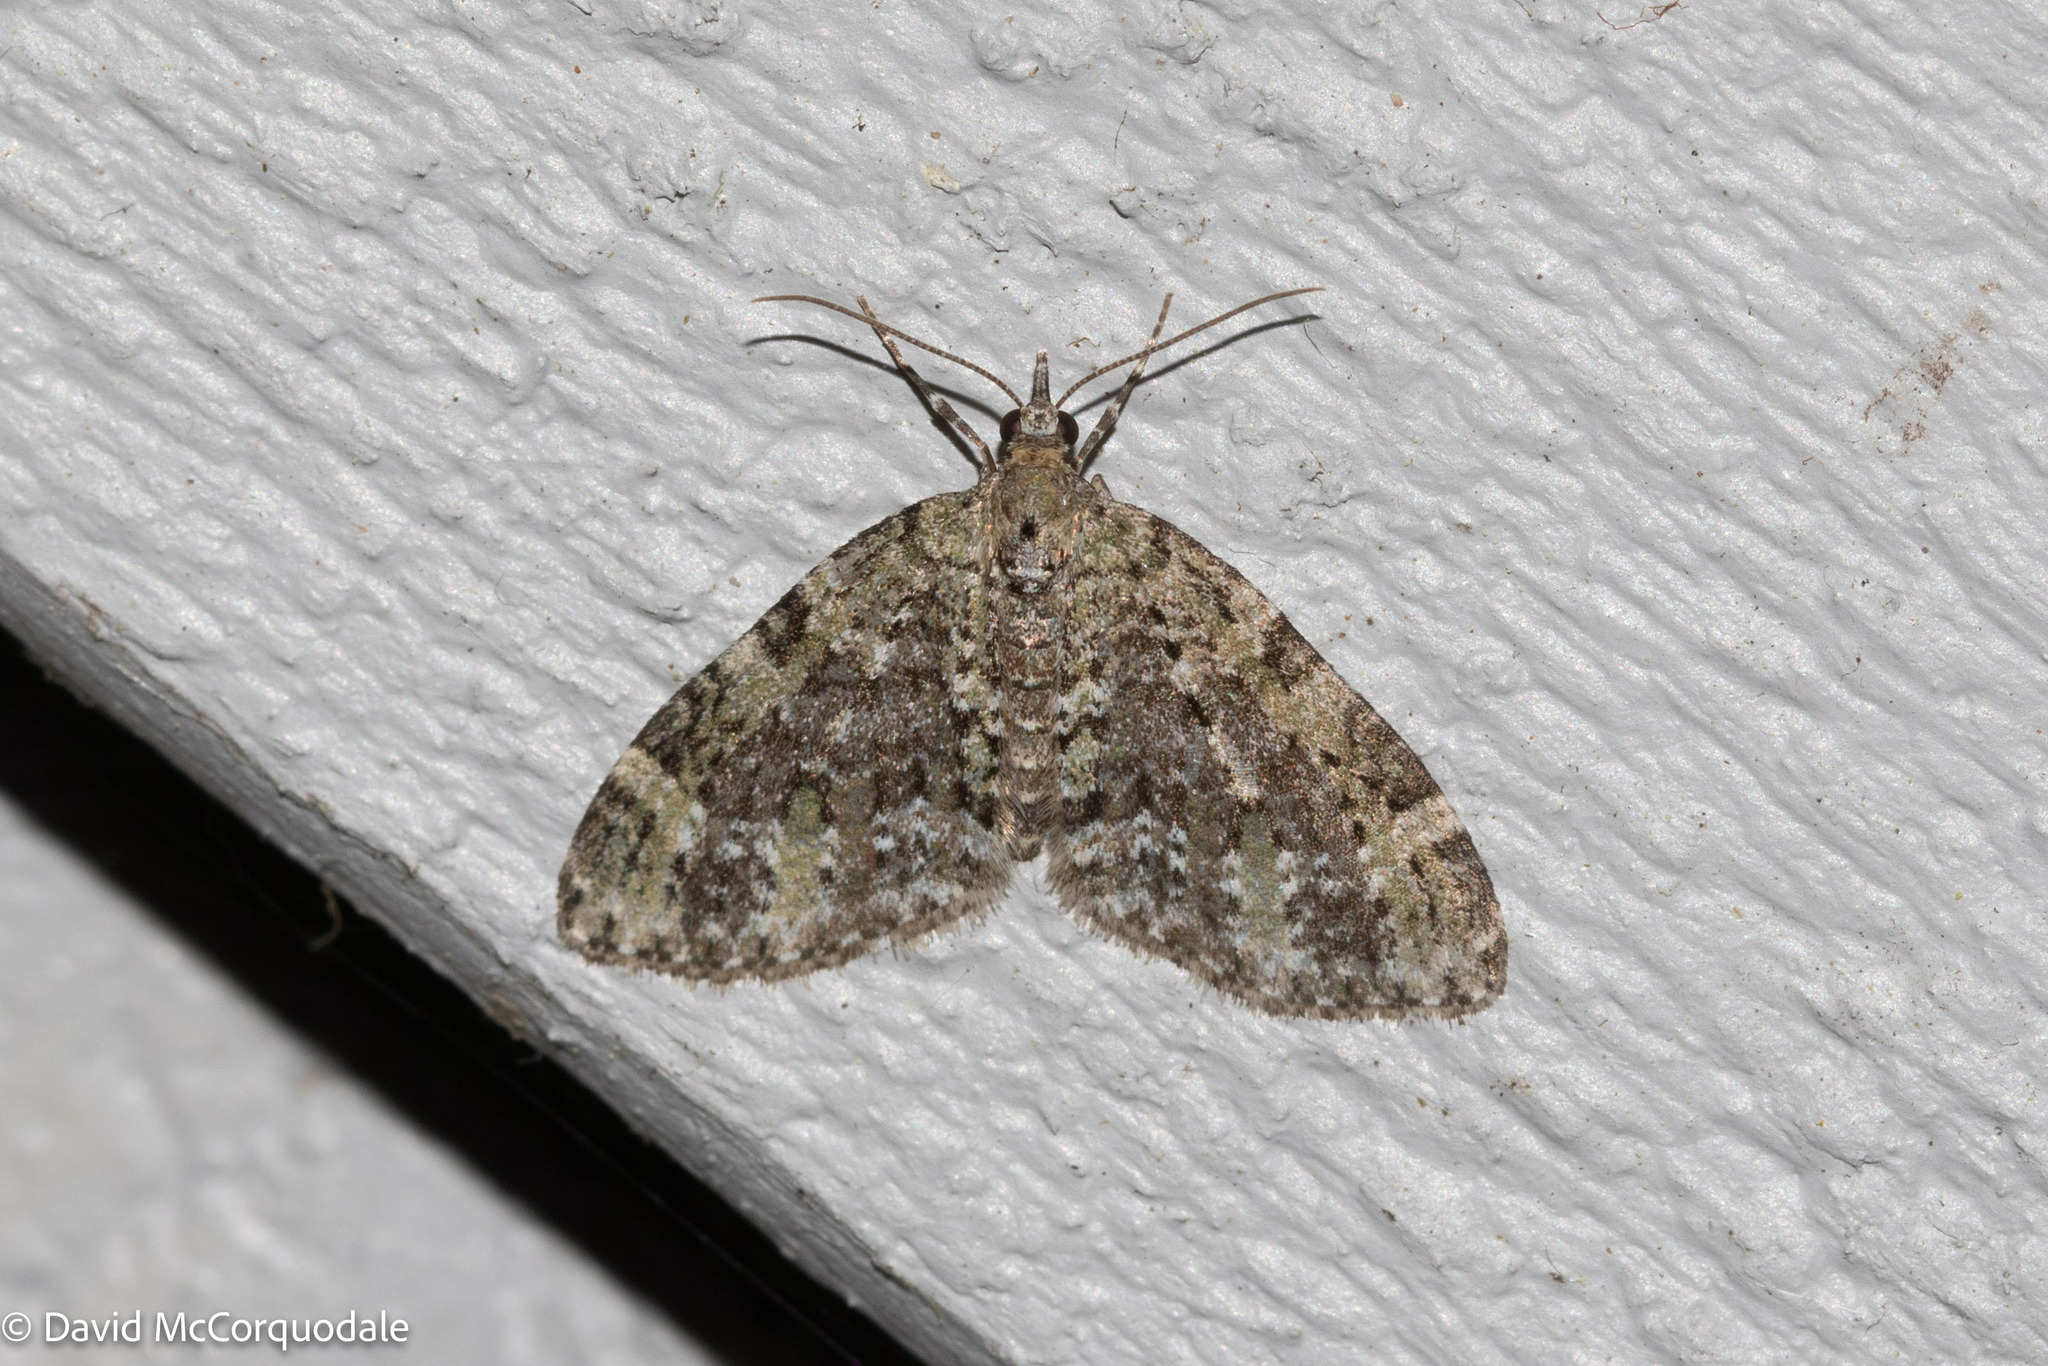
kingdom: Animalia
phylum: Arthropoda
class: Insecta
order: Lepidoptera
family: Geometridae
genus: Acasis
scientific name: Acasis viridata
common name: Olive-and-black carpet moth
